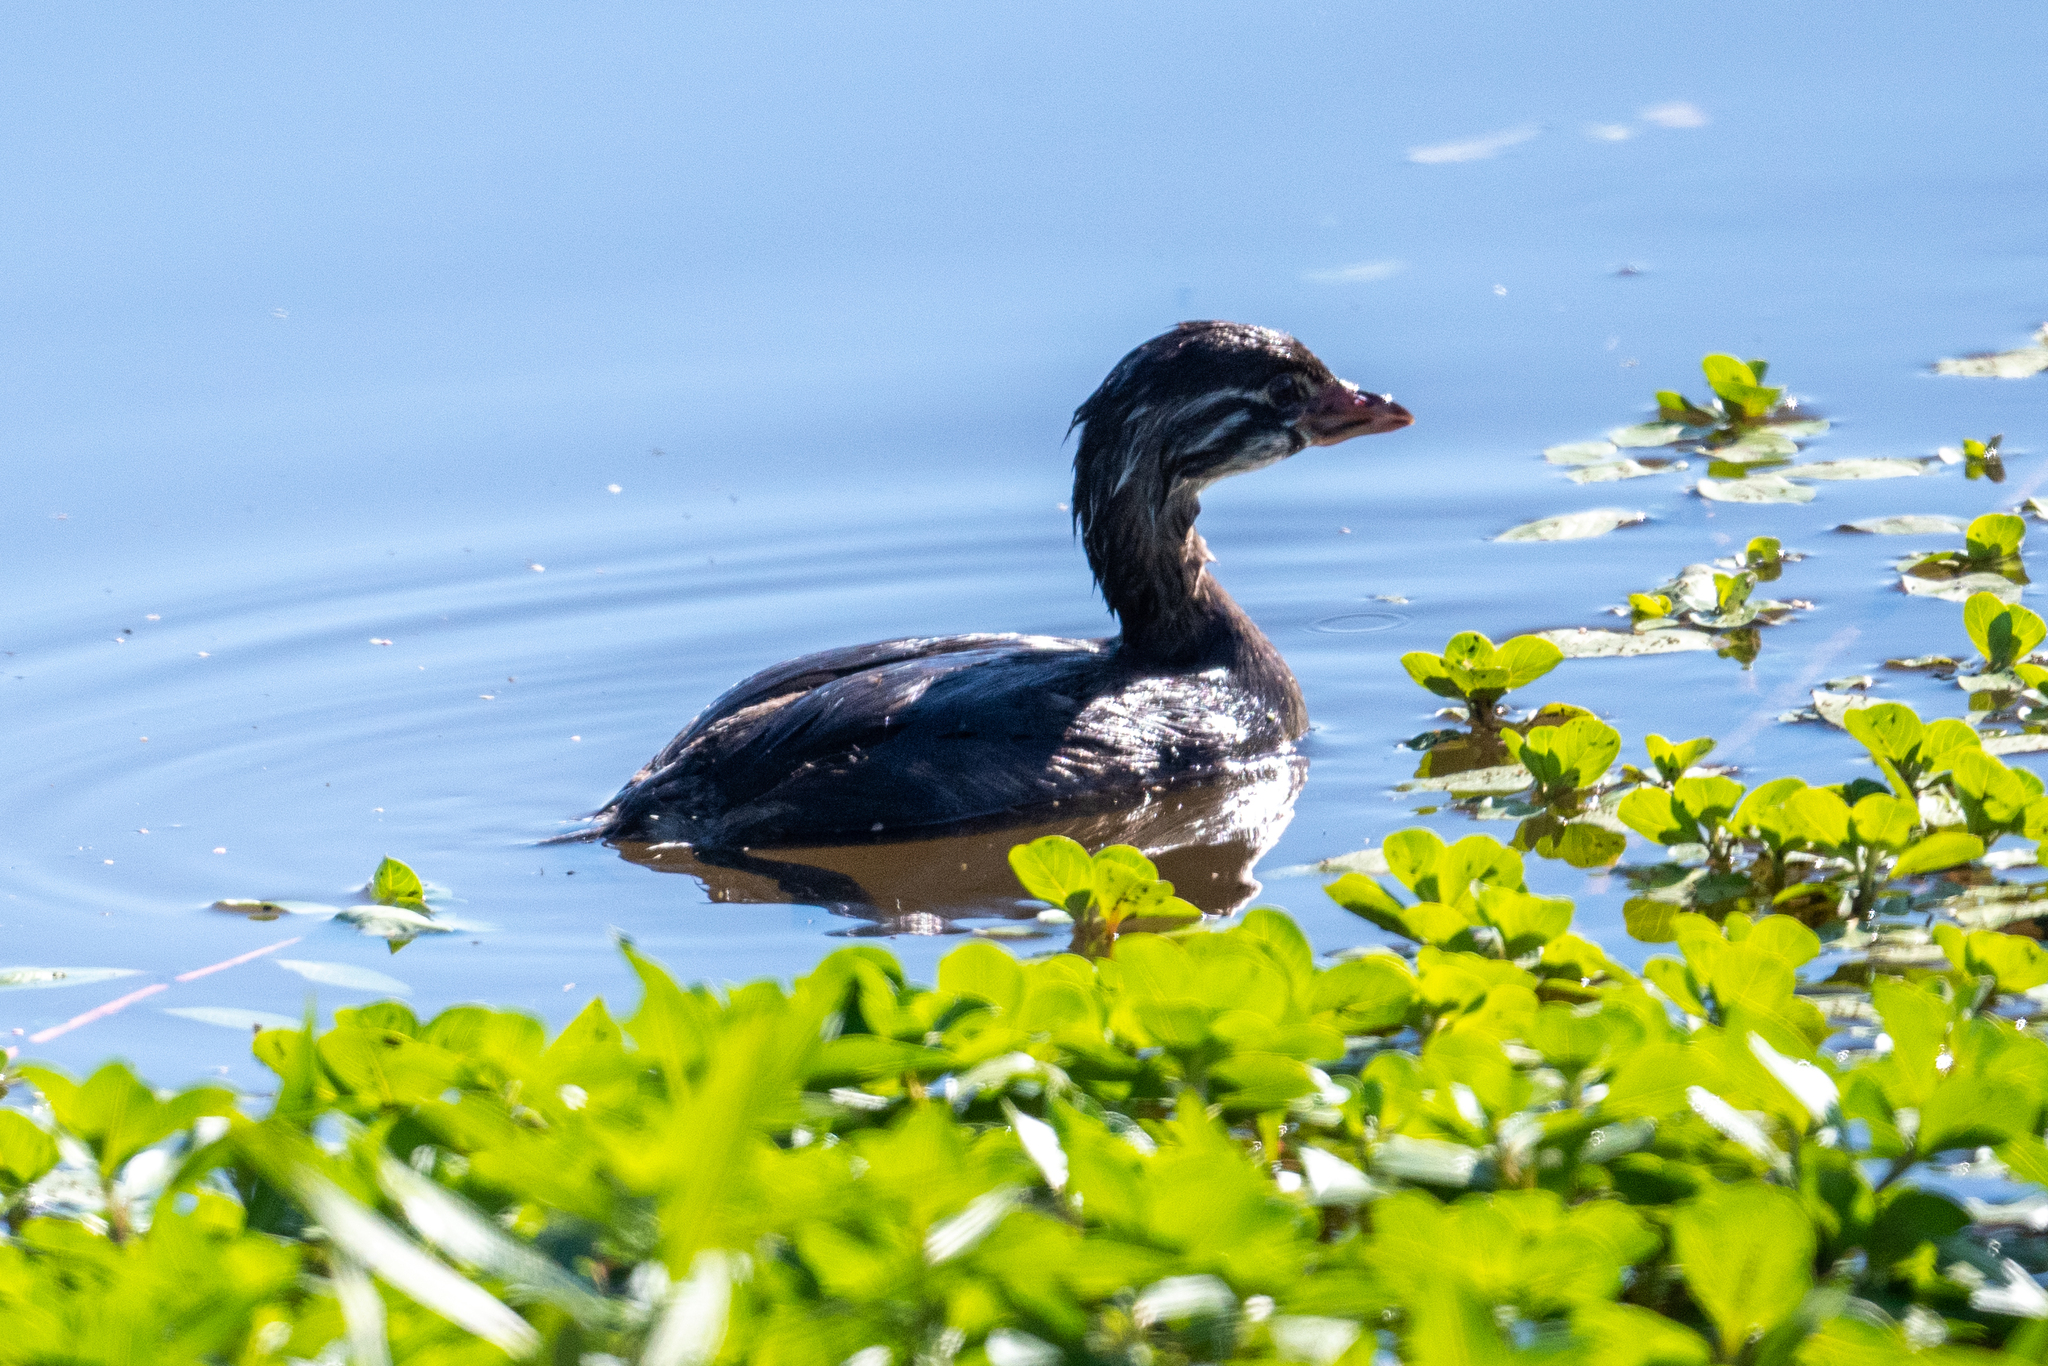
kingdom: Animalia
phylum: Chordata
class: Aves
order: Podicipediformes
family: Podicipedidae
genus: Podilymbus
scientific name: Podilymbus podiceps
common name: Pied-billed grebe
